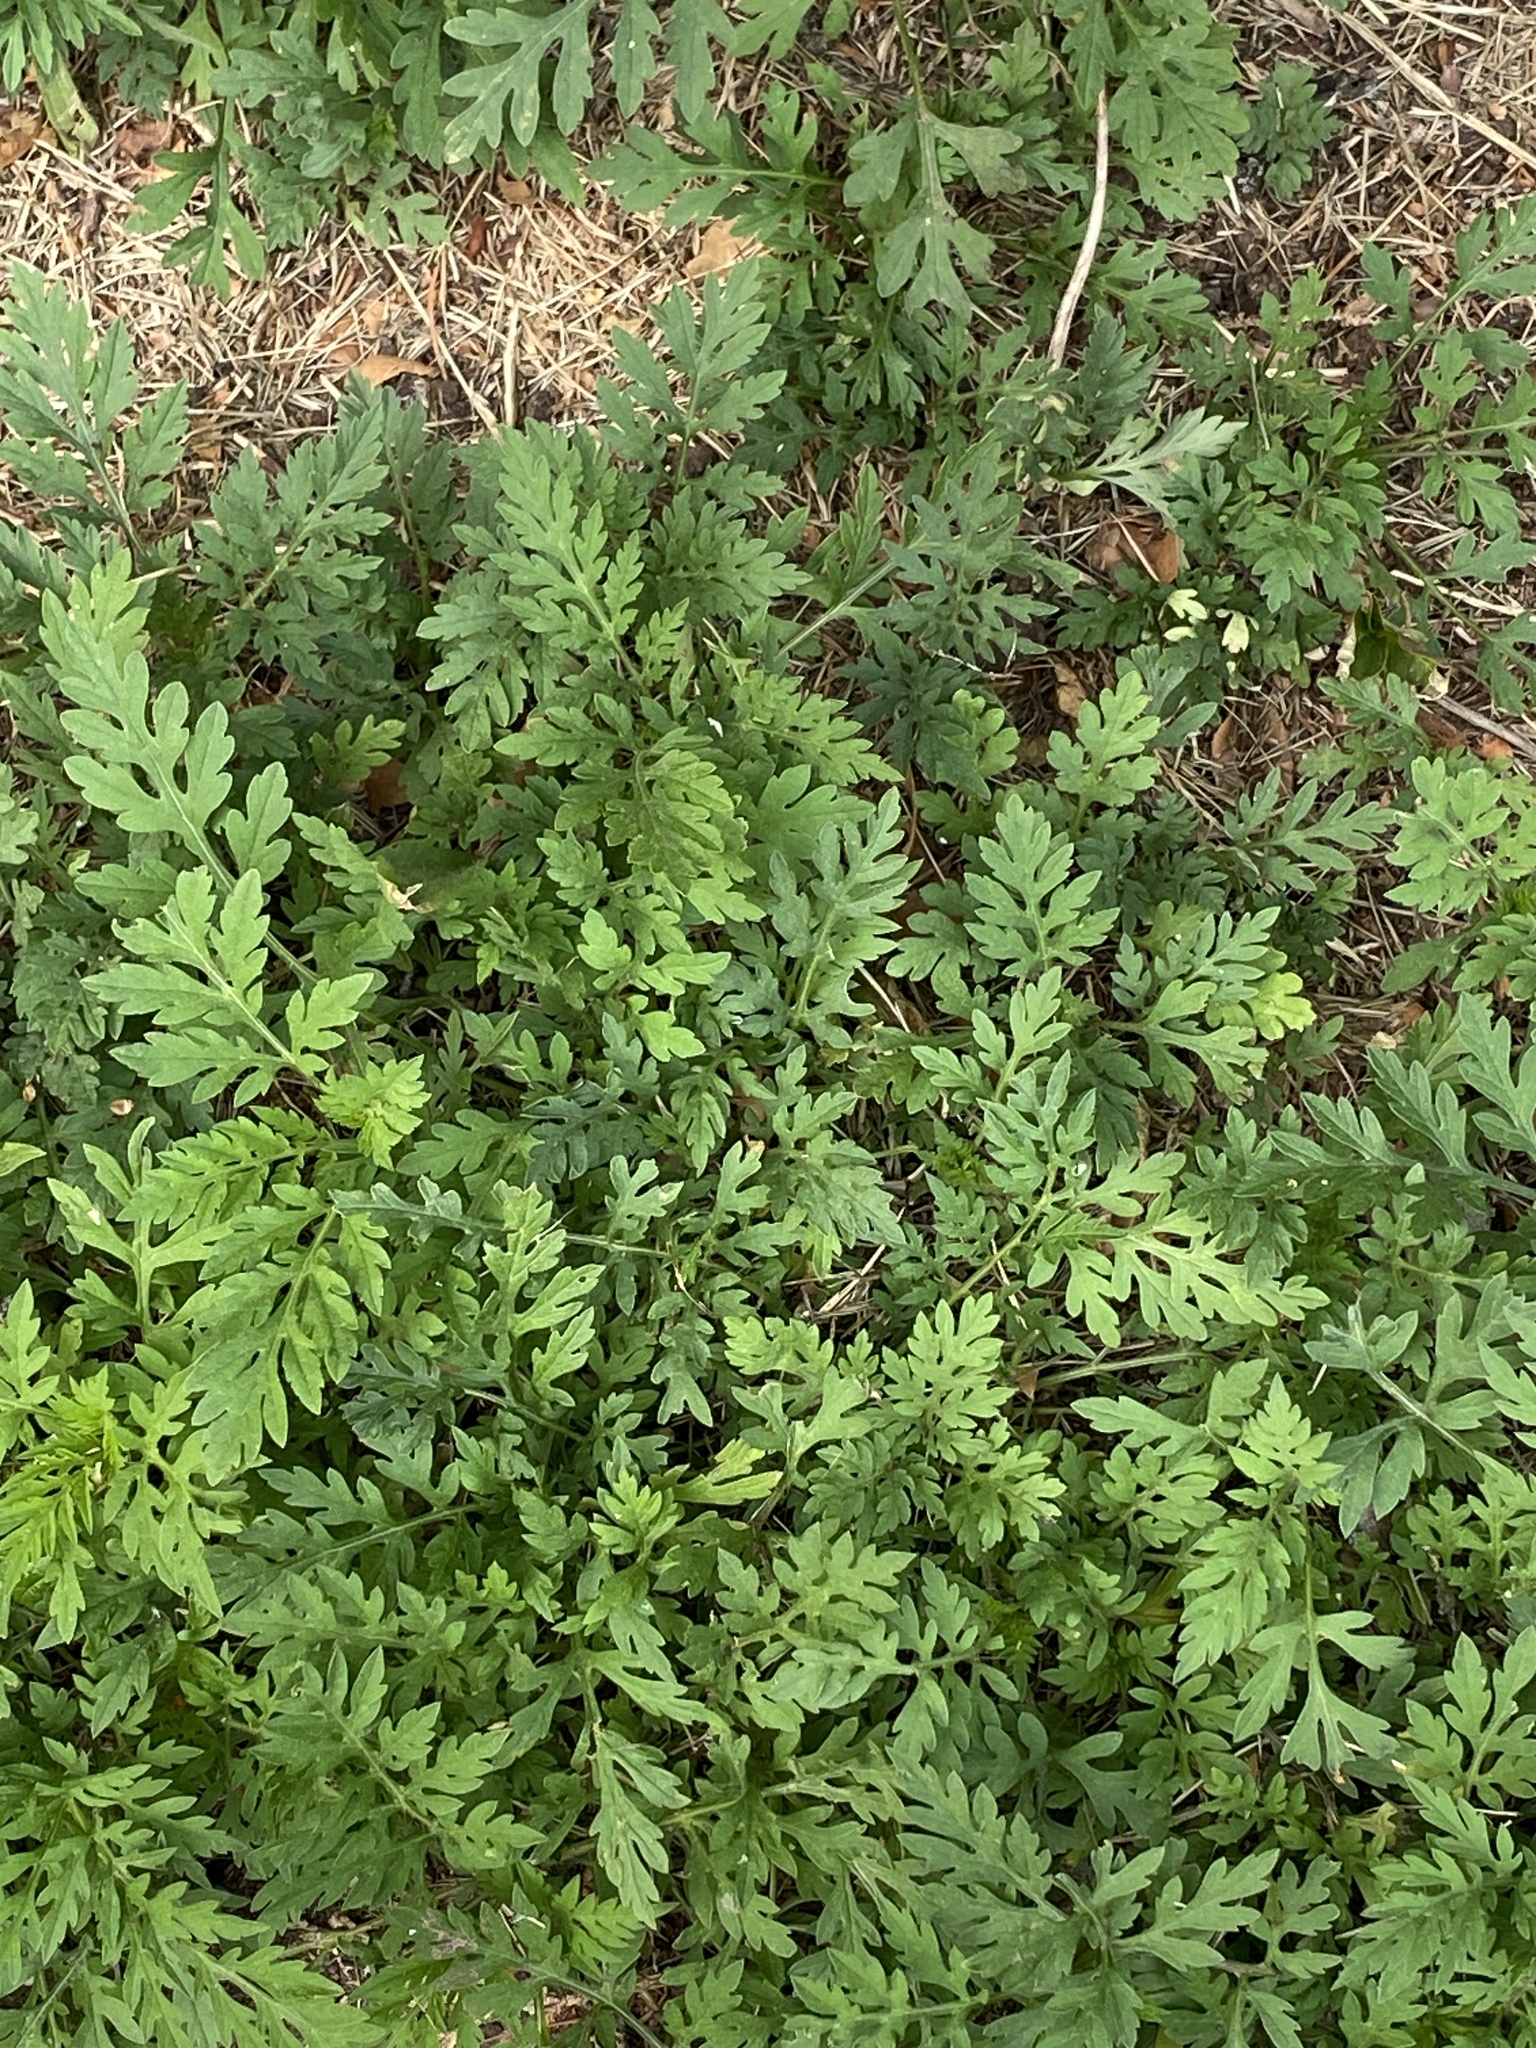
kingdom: Plantae
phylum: Tracheophyta
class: Magnoliopsida
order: Asterales
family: Asteraceae
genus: Ambrosia
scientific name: Ambrosia artemisiifolia
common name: Annual ragweed
